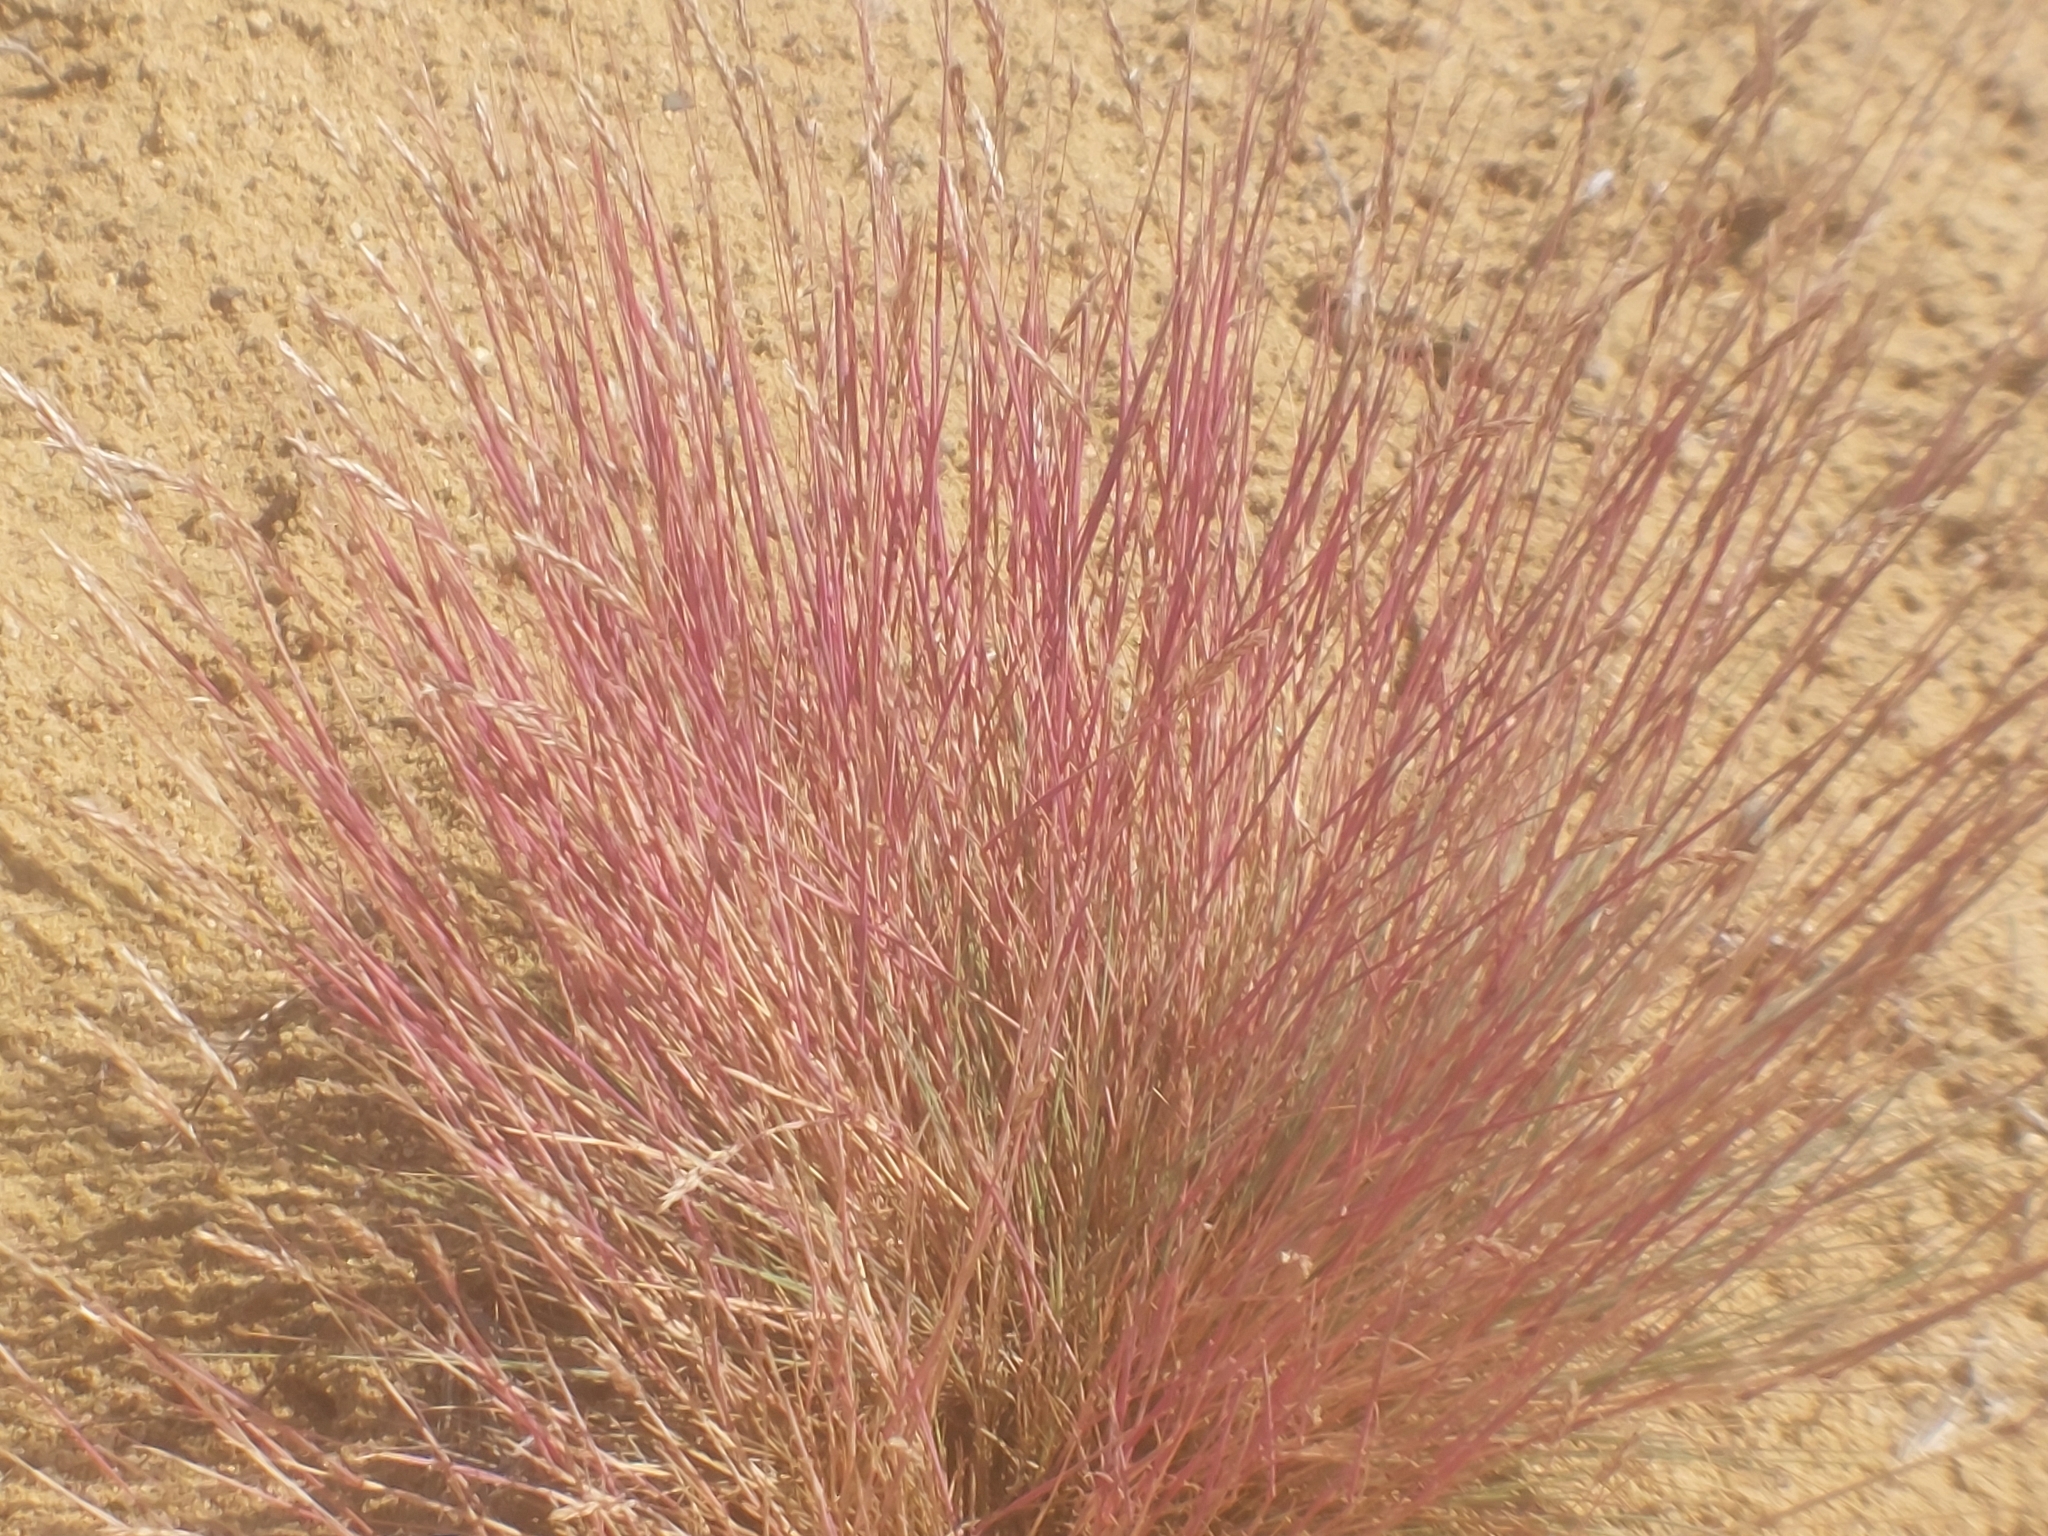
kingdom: Plantae
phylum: Tracheophyta
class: Liliopsida
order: Poales
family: Poaceae
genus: Corynephorus
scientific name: Corynephorus canescens
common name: Grey hair-grass
